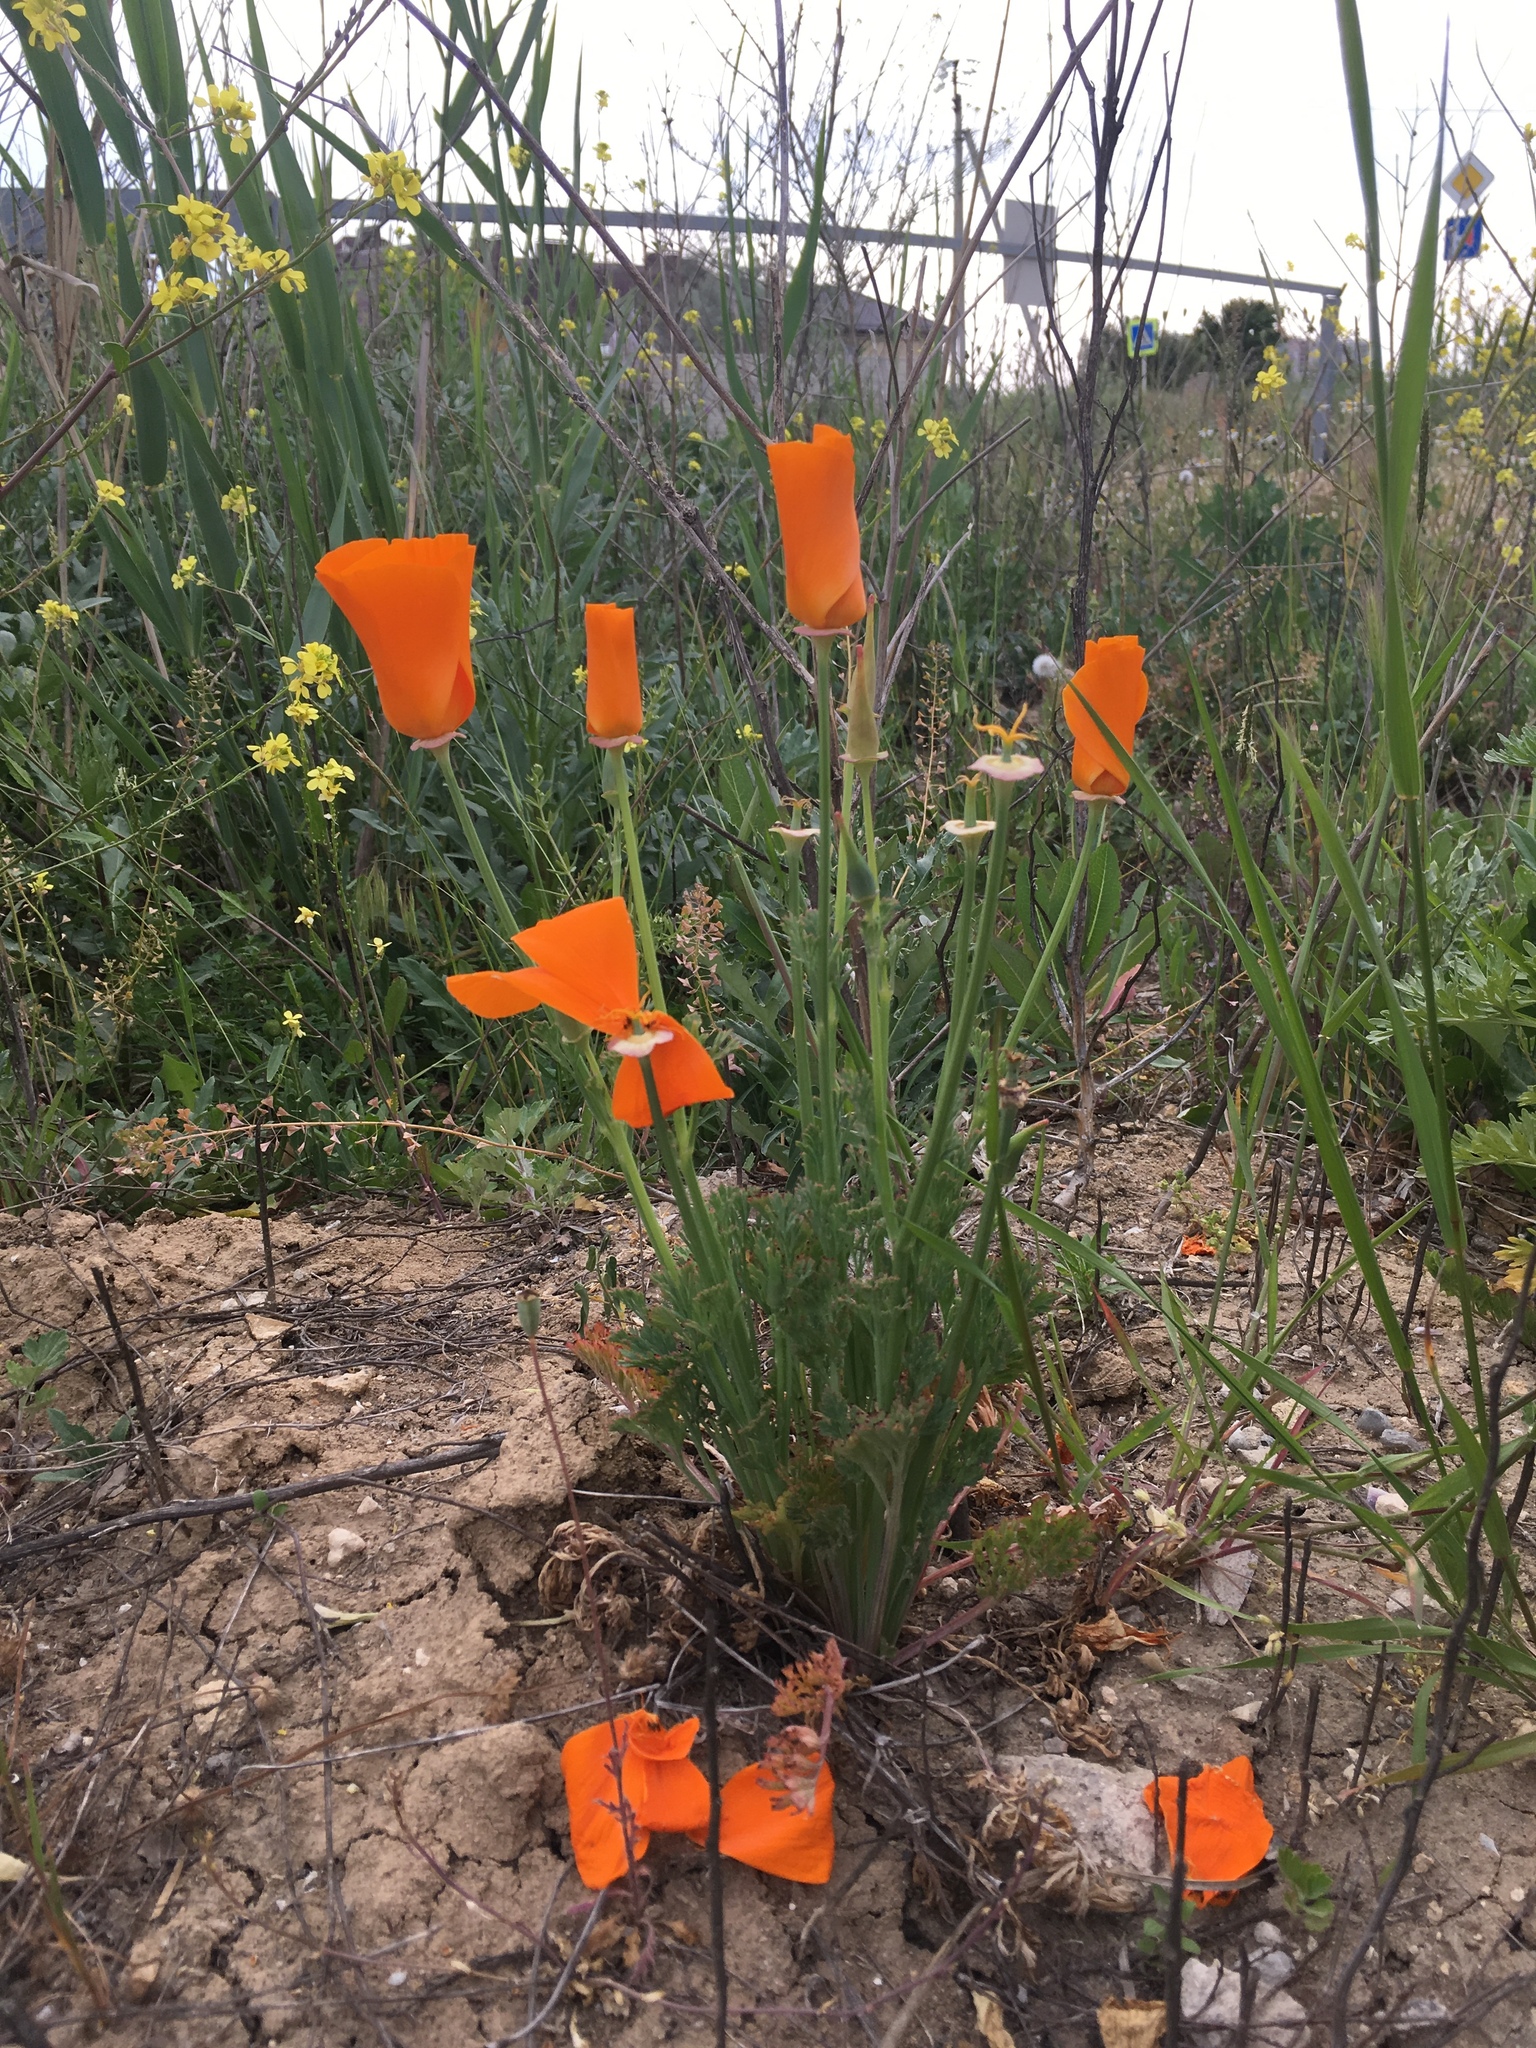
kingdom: Plantae
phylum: Tracheophyta
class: Magnoliopsida
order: Ranunculales
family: Papaveraceae
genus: Eschscholzia
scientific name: Eschscholzia californica
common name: California poppy
